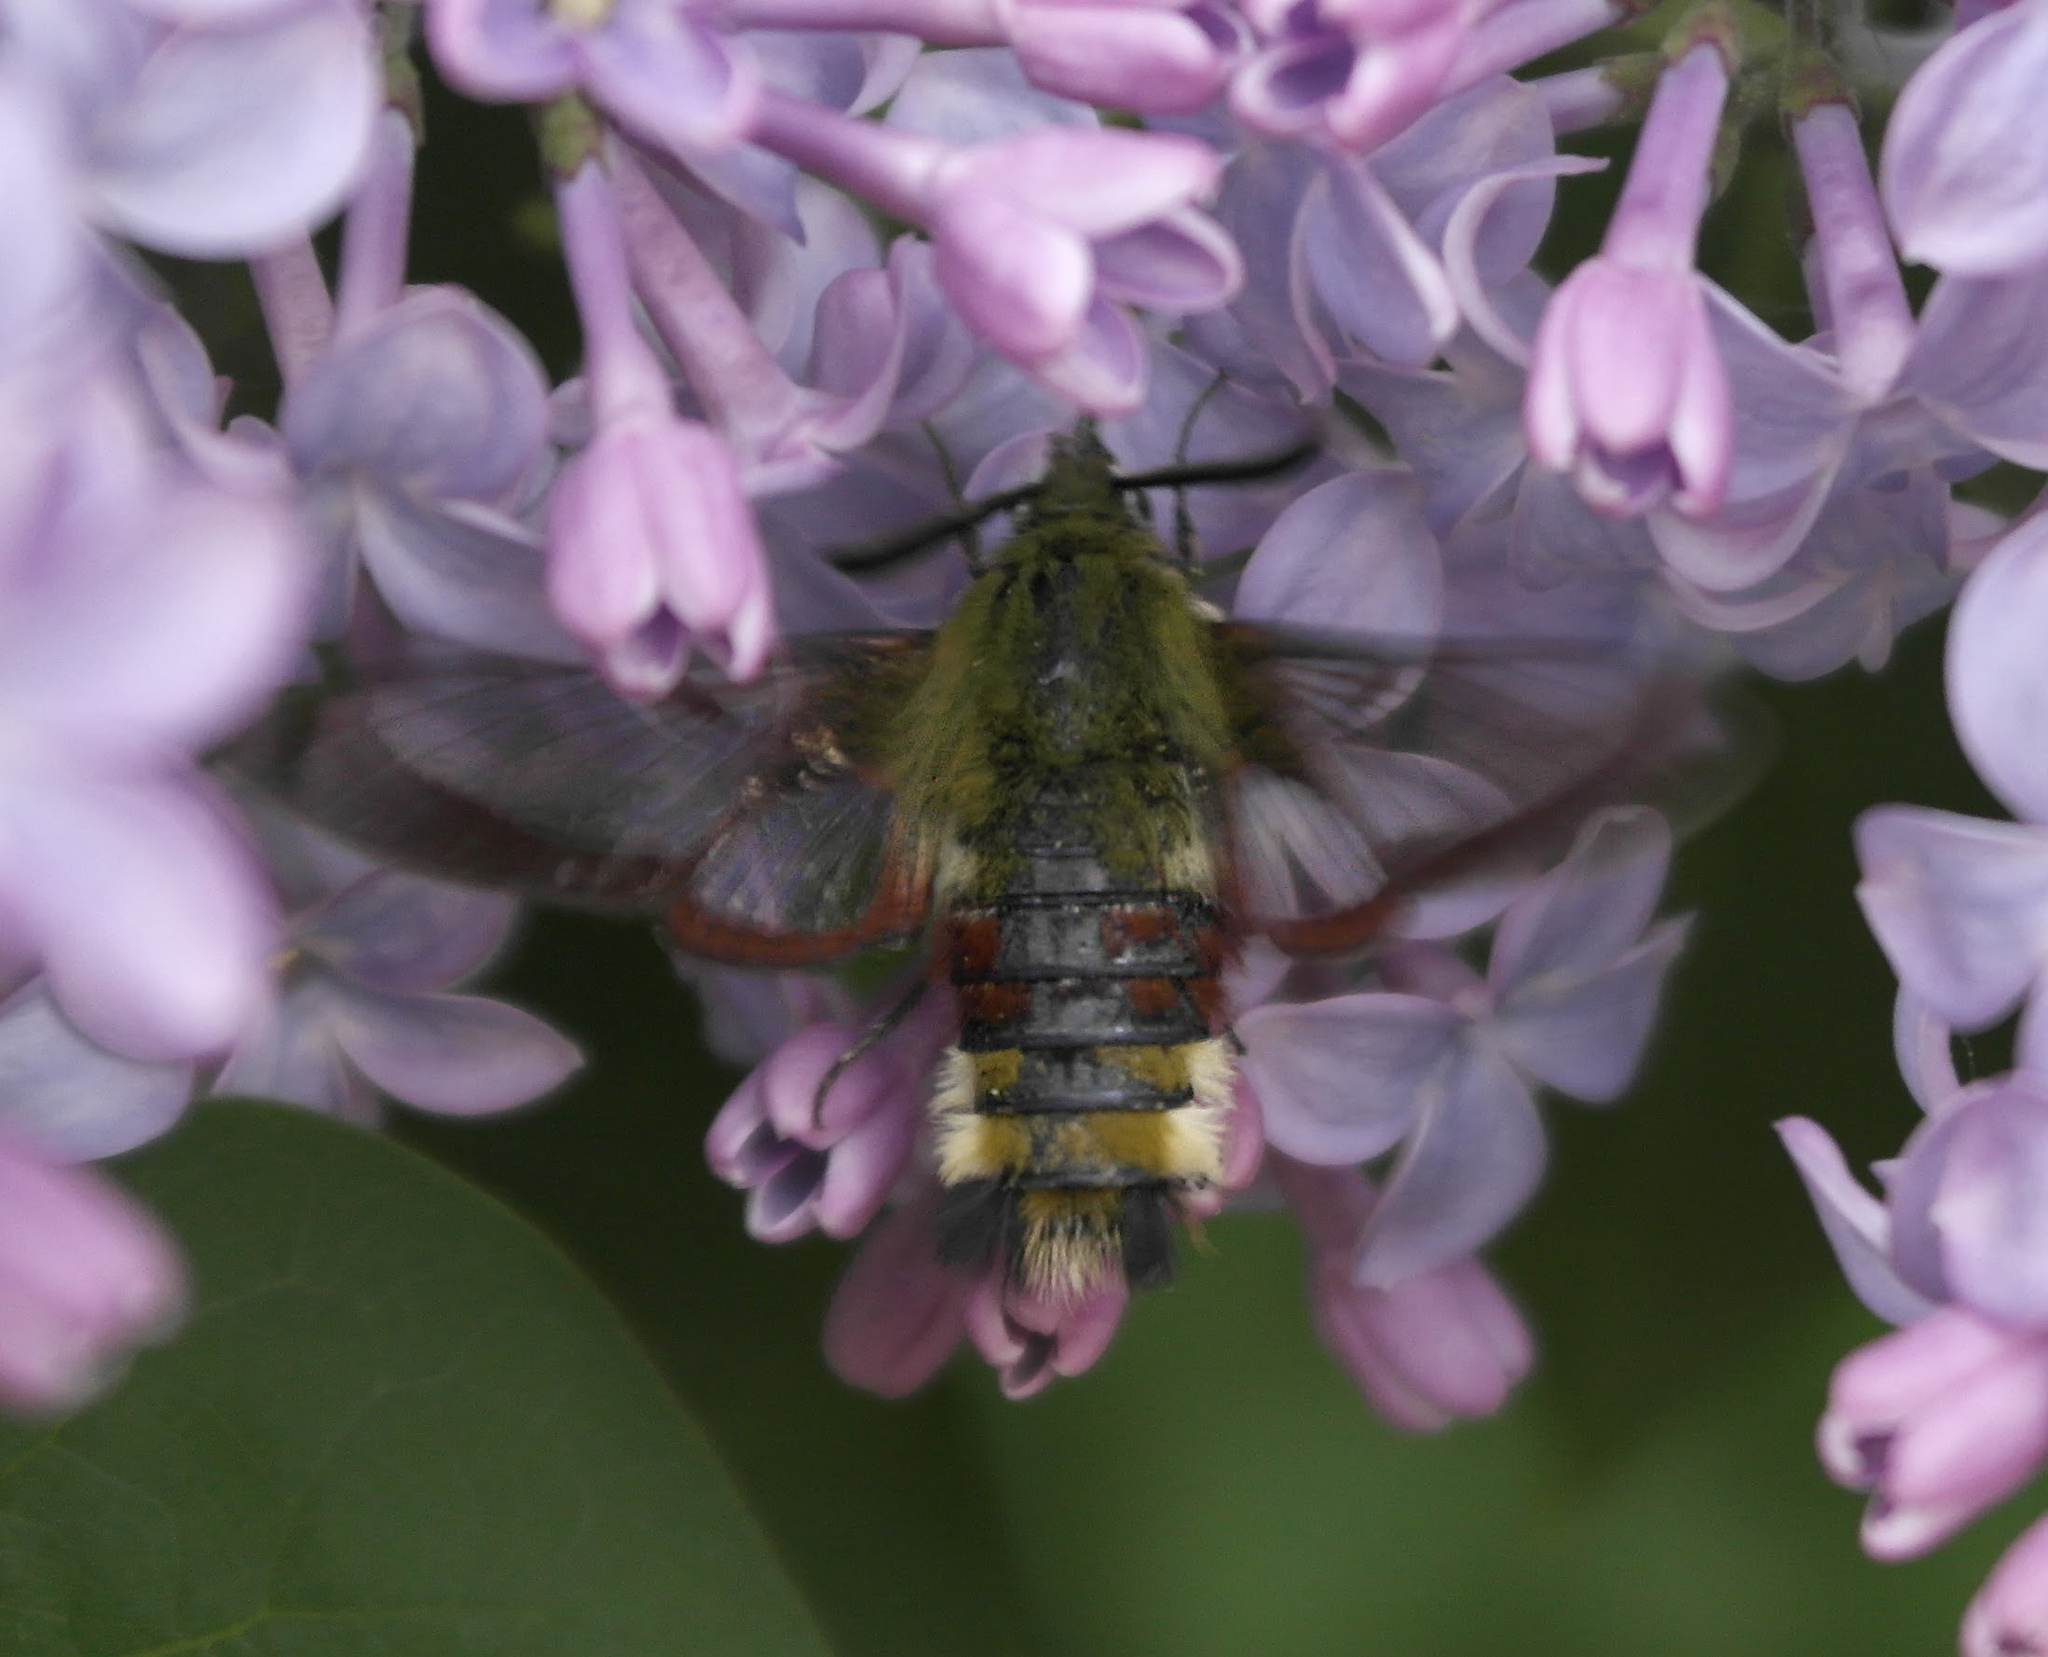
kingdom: Animalia
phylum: Arthropoda
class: Insecta
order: Lepidoptera
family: Sphingidae
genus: Hemaris
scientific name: Hemaris fuciformis
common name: Broad-bordered bee hawk-moth
